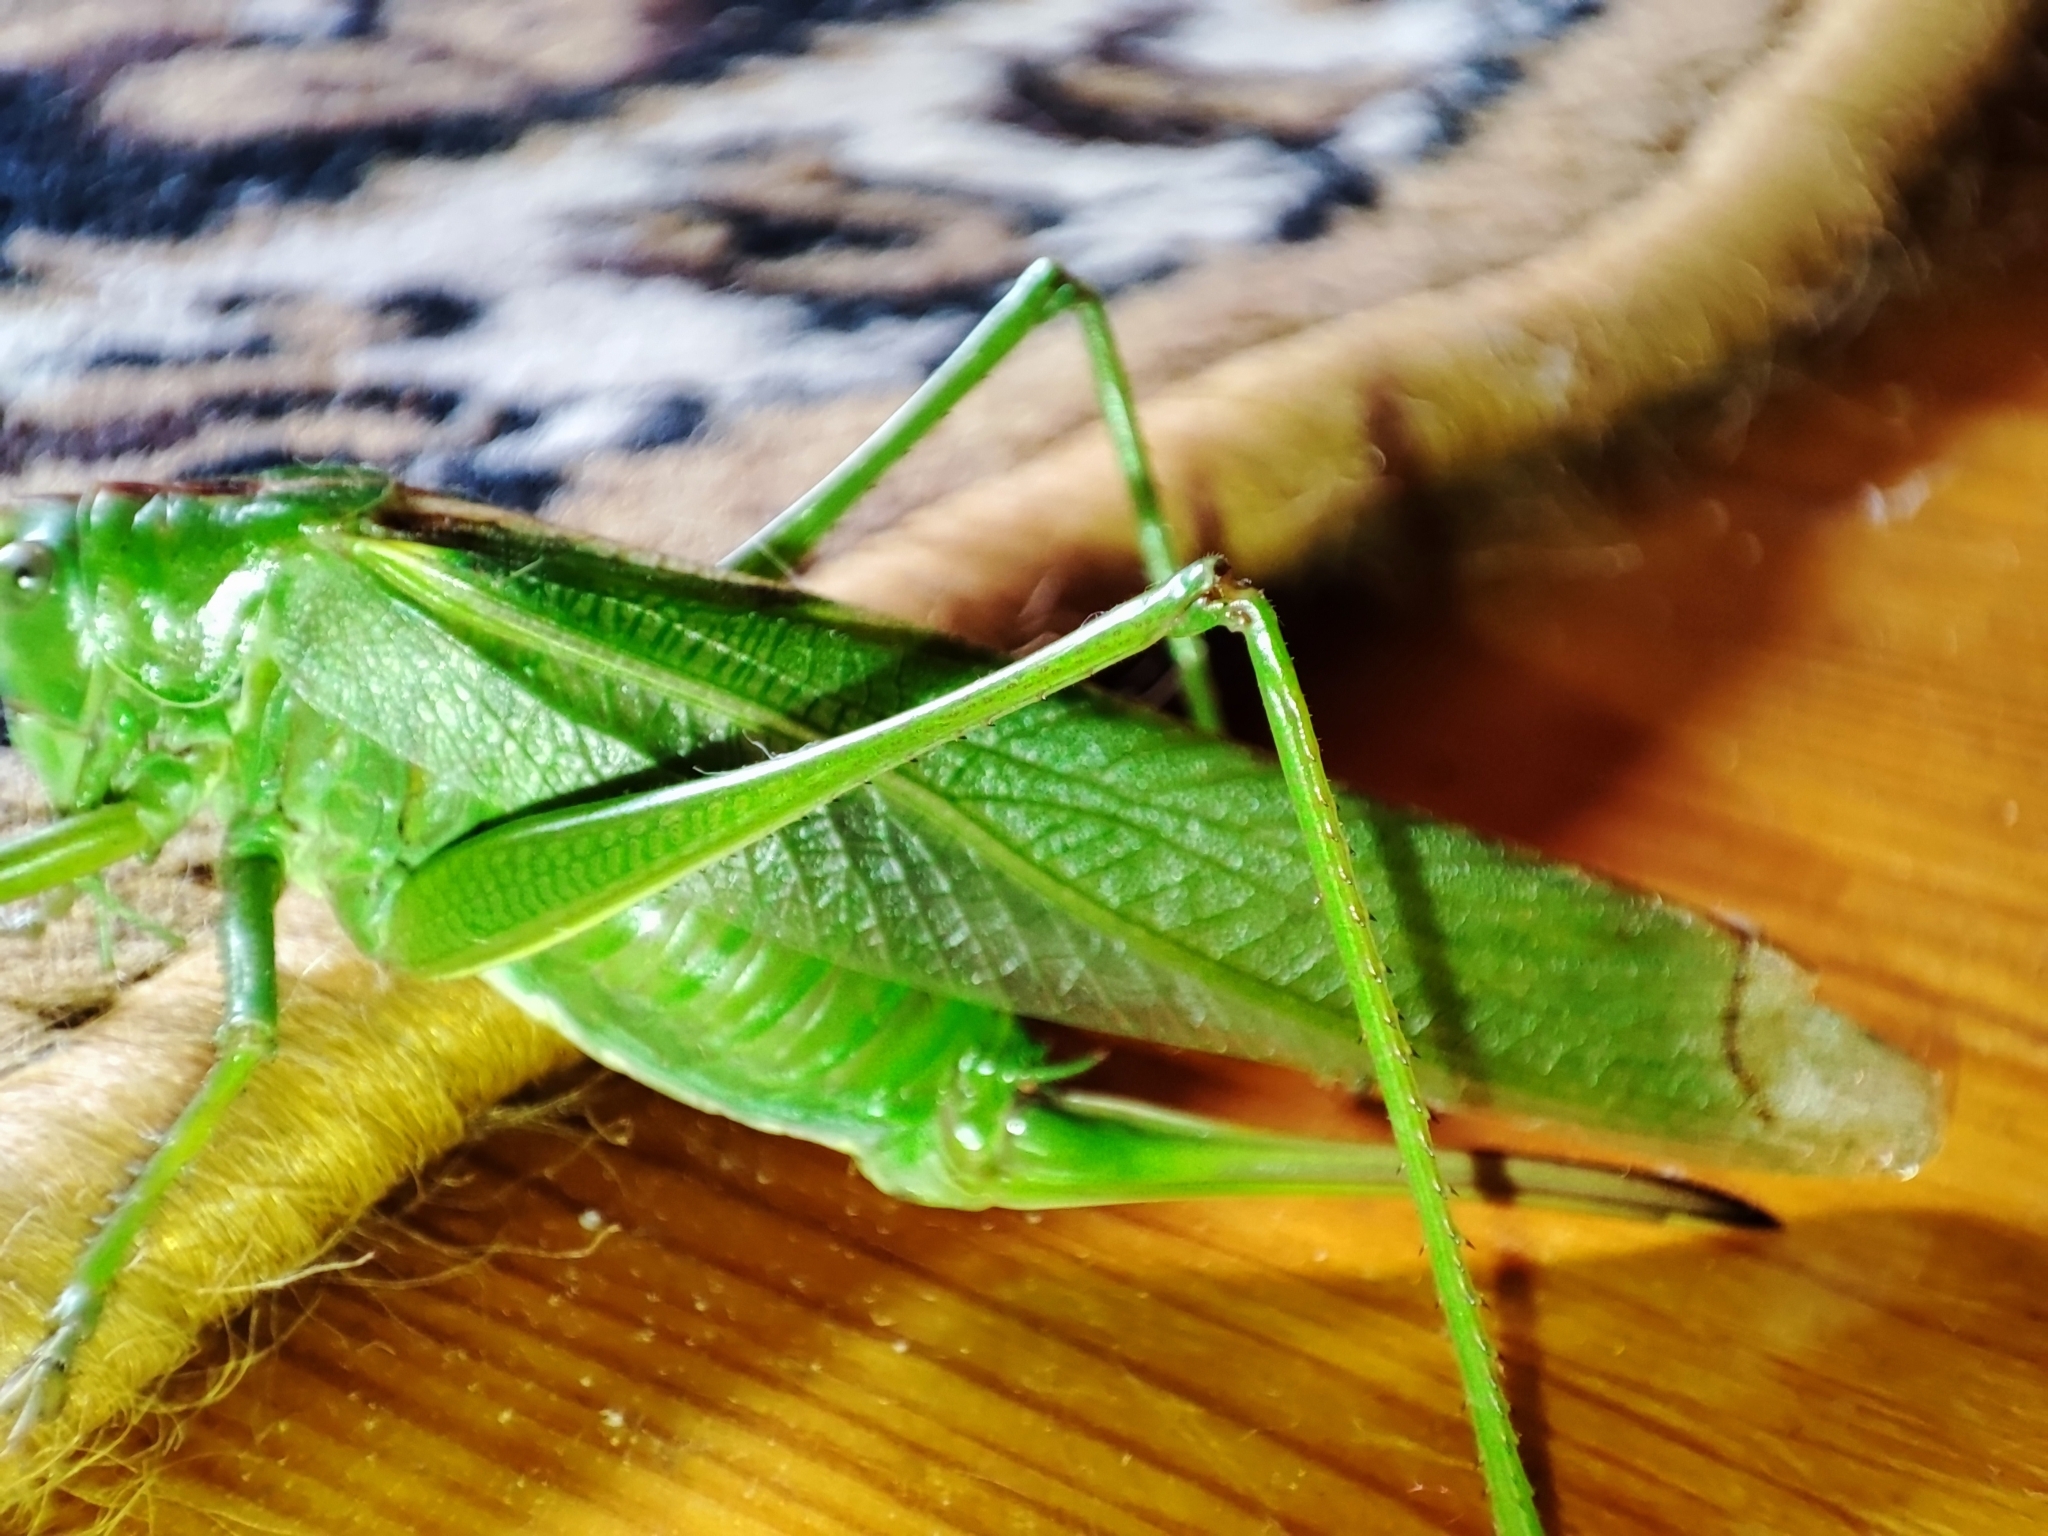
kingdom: Animalia
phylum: Arthropoda
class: Insecta
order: Orthoptera
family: Tettigoniidae
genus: Tettigonia
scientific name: Tettigonia viridissima
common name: Great green bush-cricket
